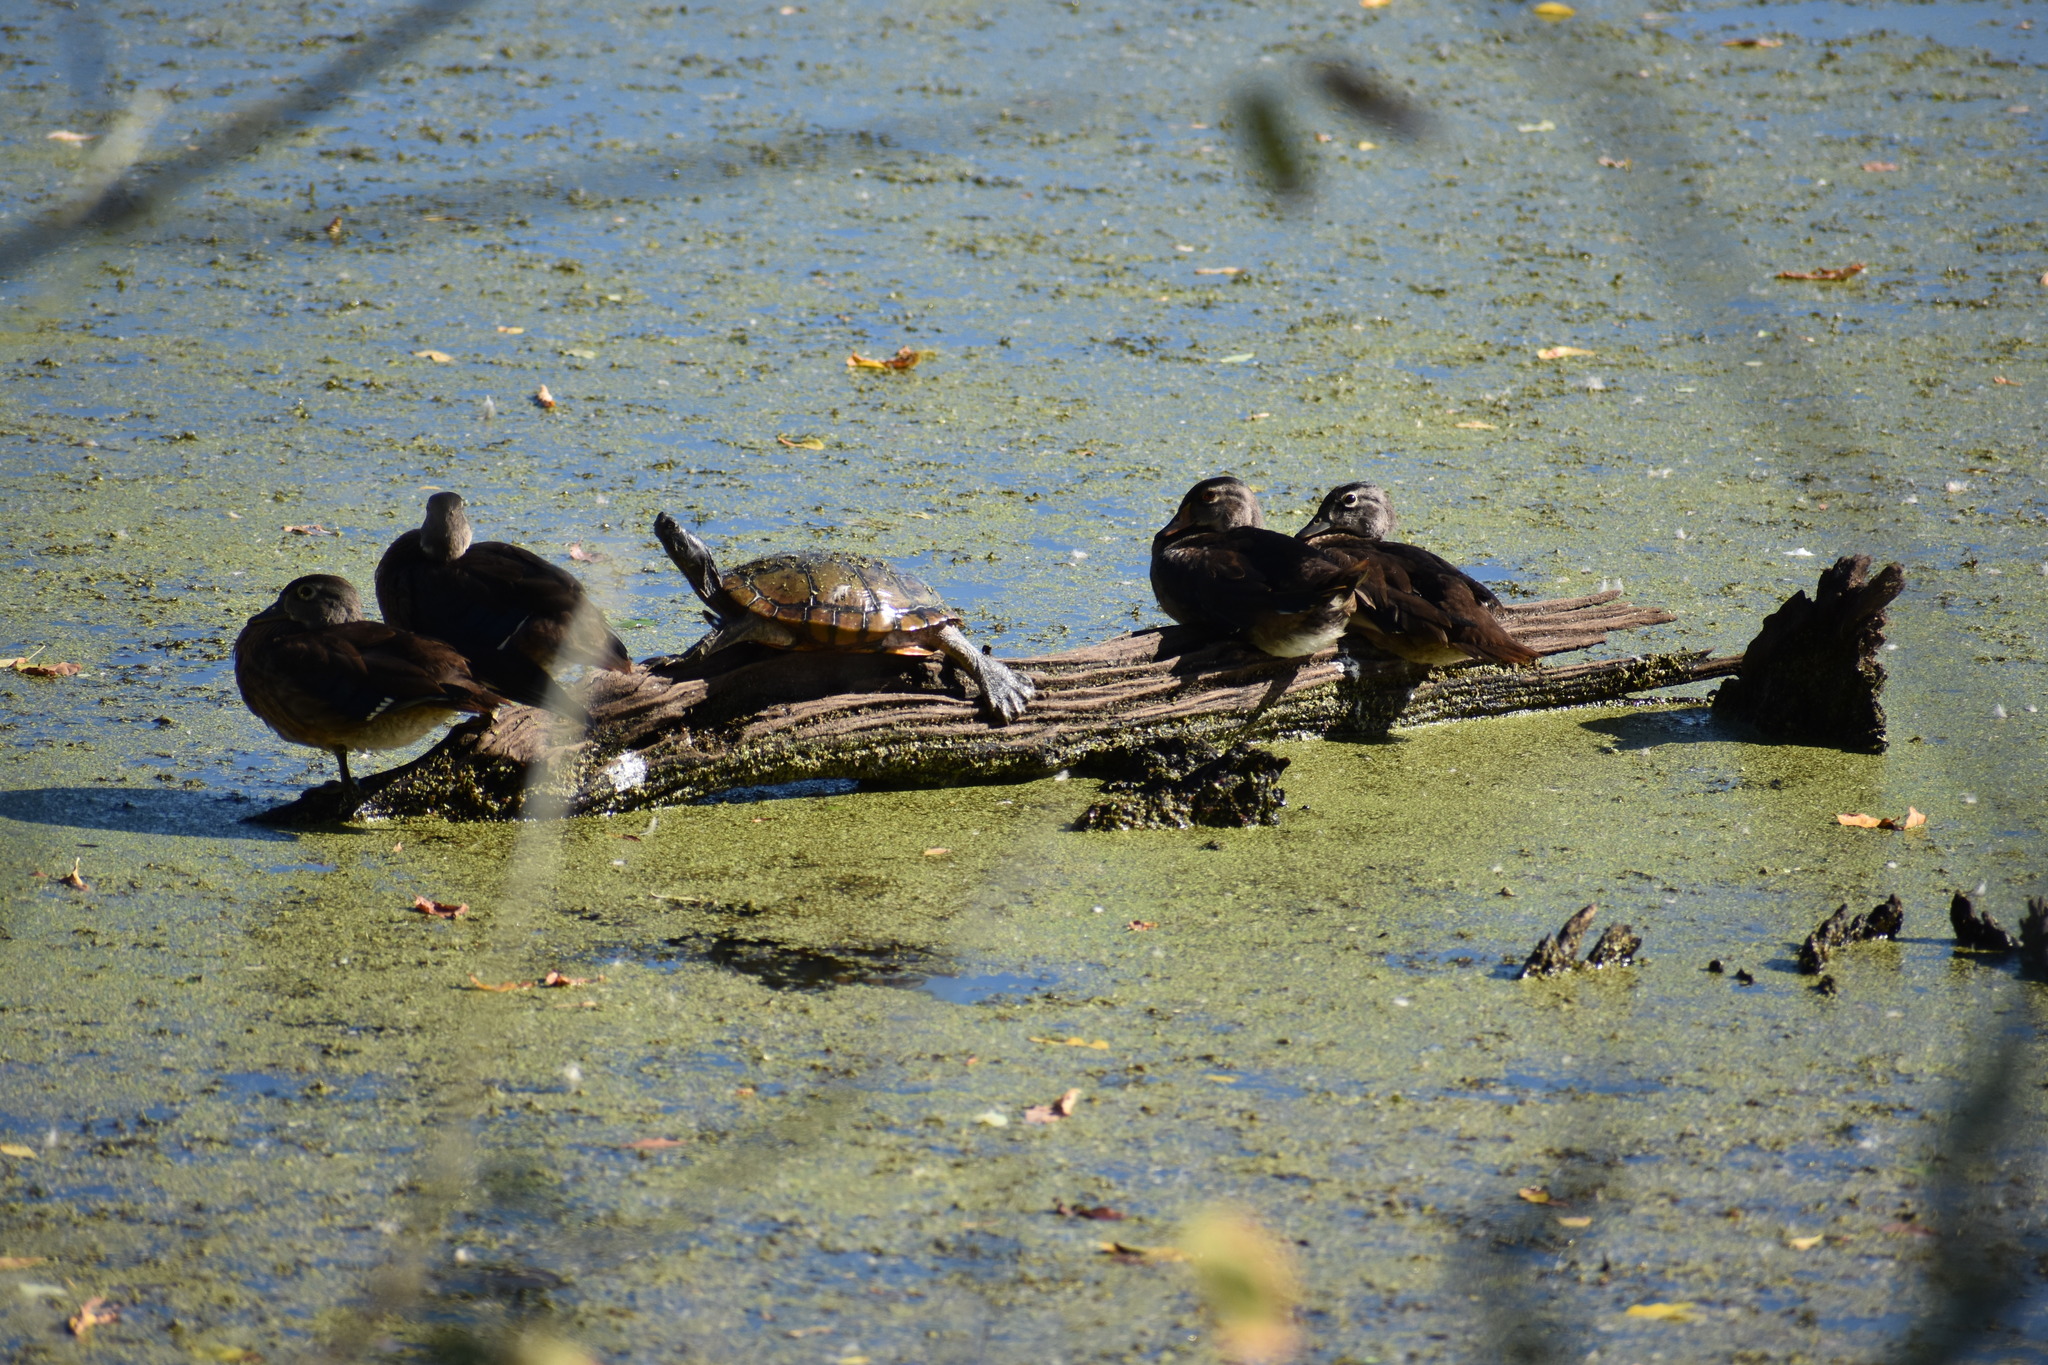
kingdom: Animalia
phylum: Chordata
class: Aves
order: Anseriformes
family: Anatidae
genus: Aix
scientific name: Aix sponsa
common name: Wood duck
